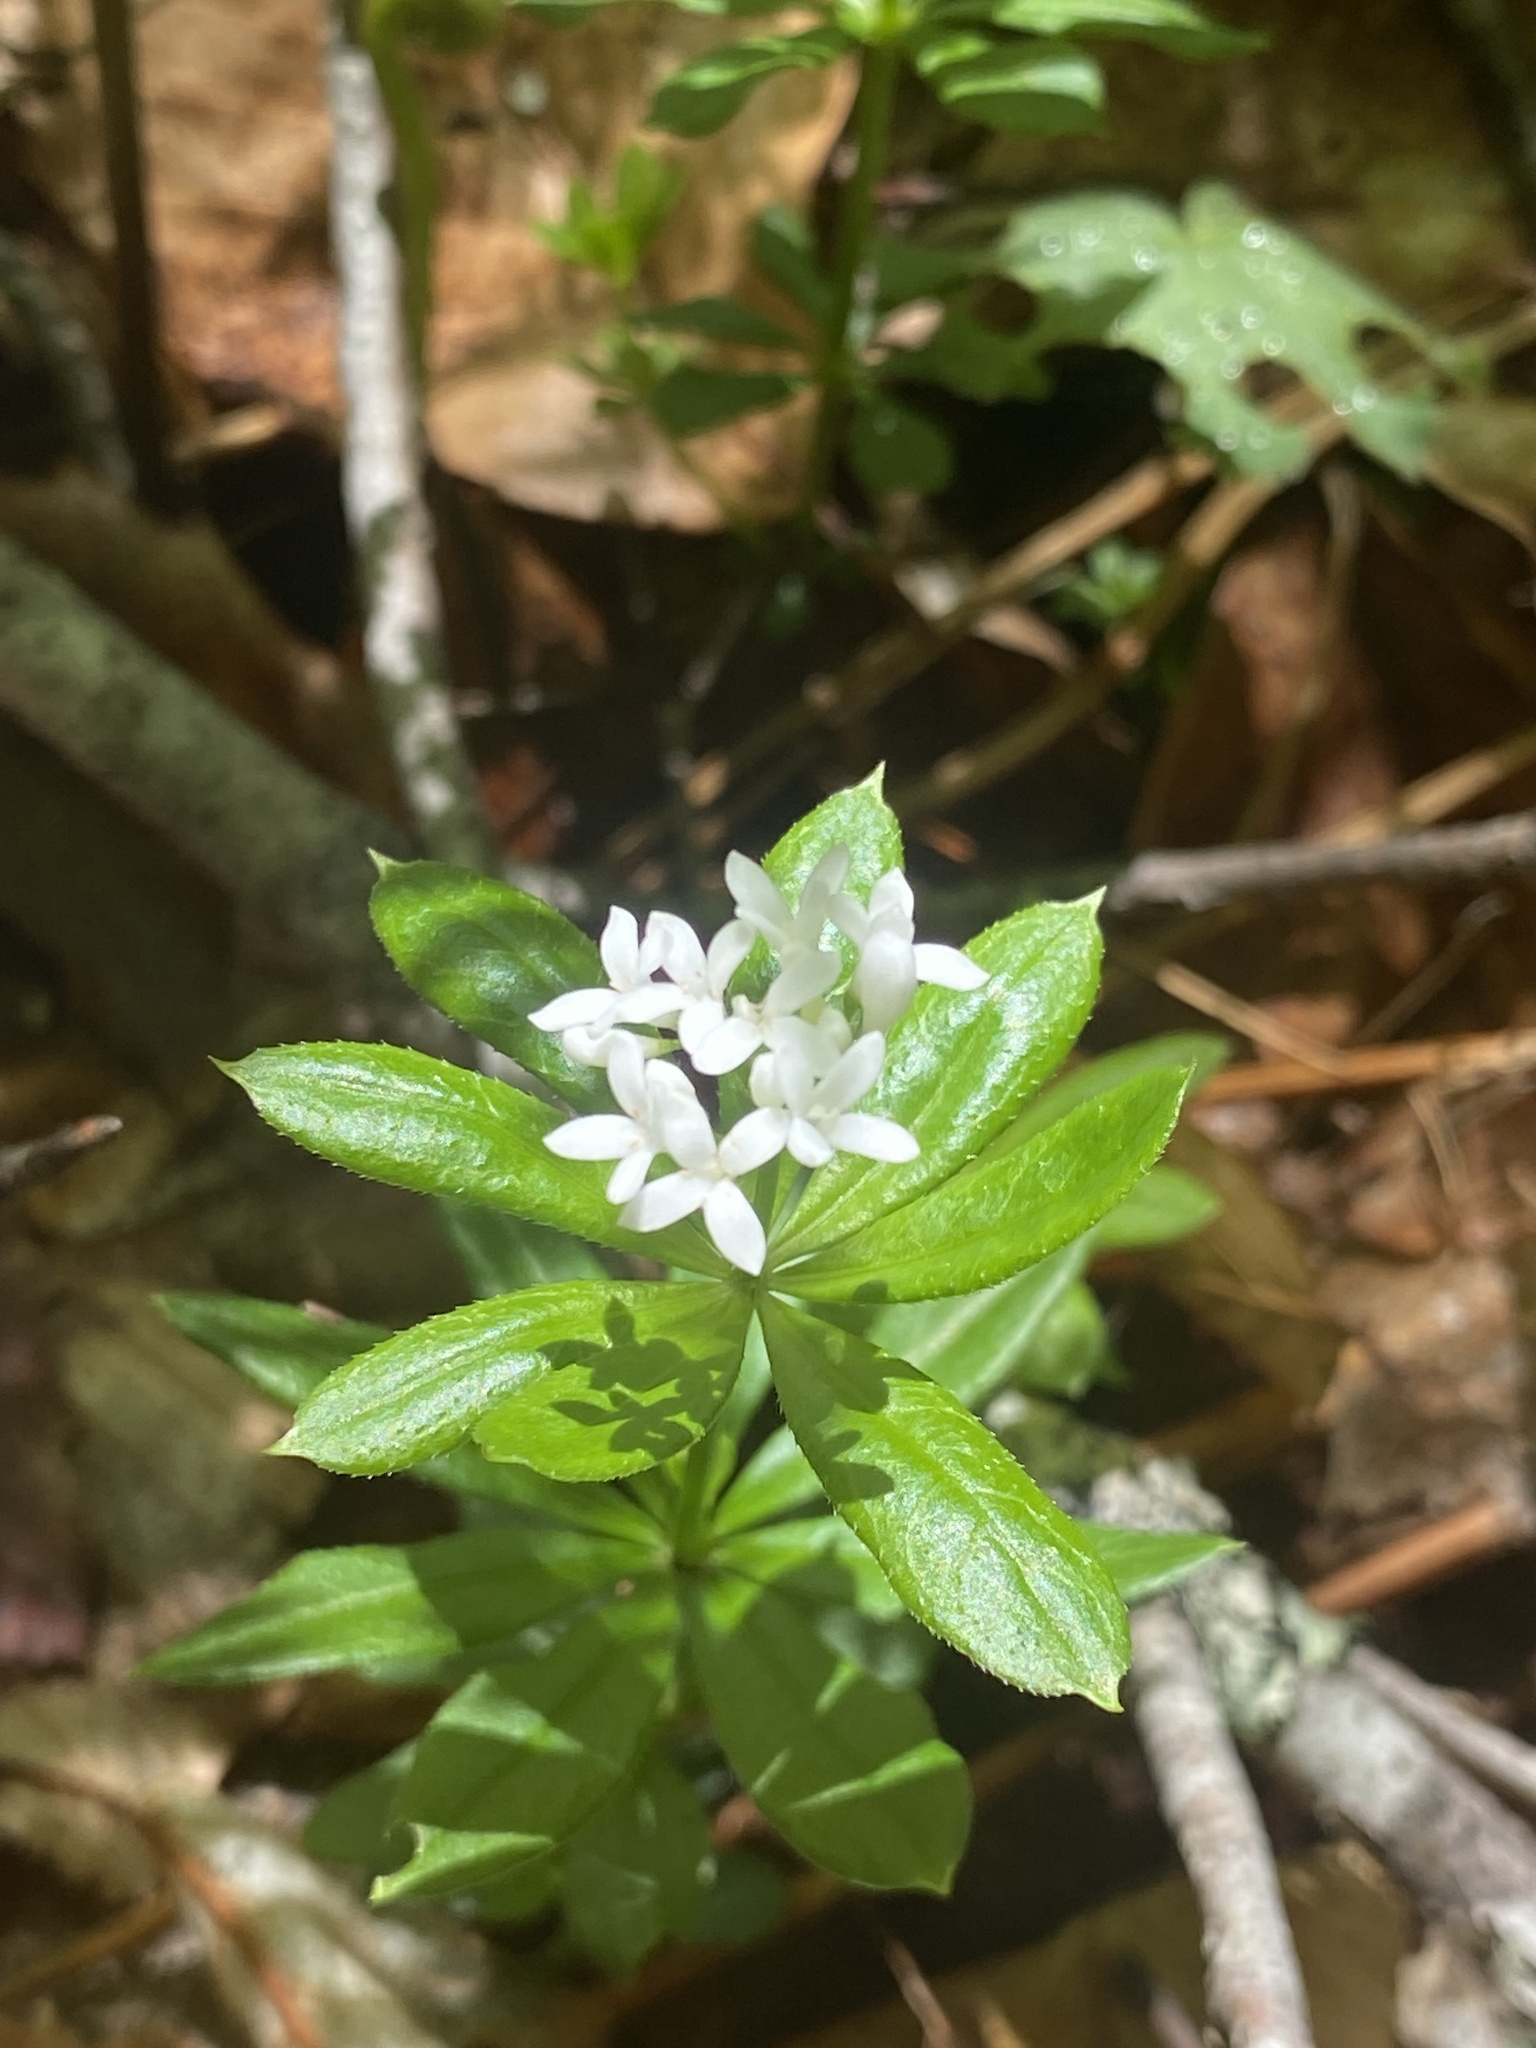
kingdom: Plantae
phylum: Tracheophyta
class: Magnoliopsida
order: Gentianales
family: Rubiaceae
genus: Galium
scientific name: Galium odoratum
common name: Sweet woodruff
